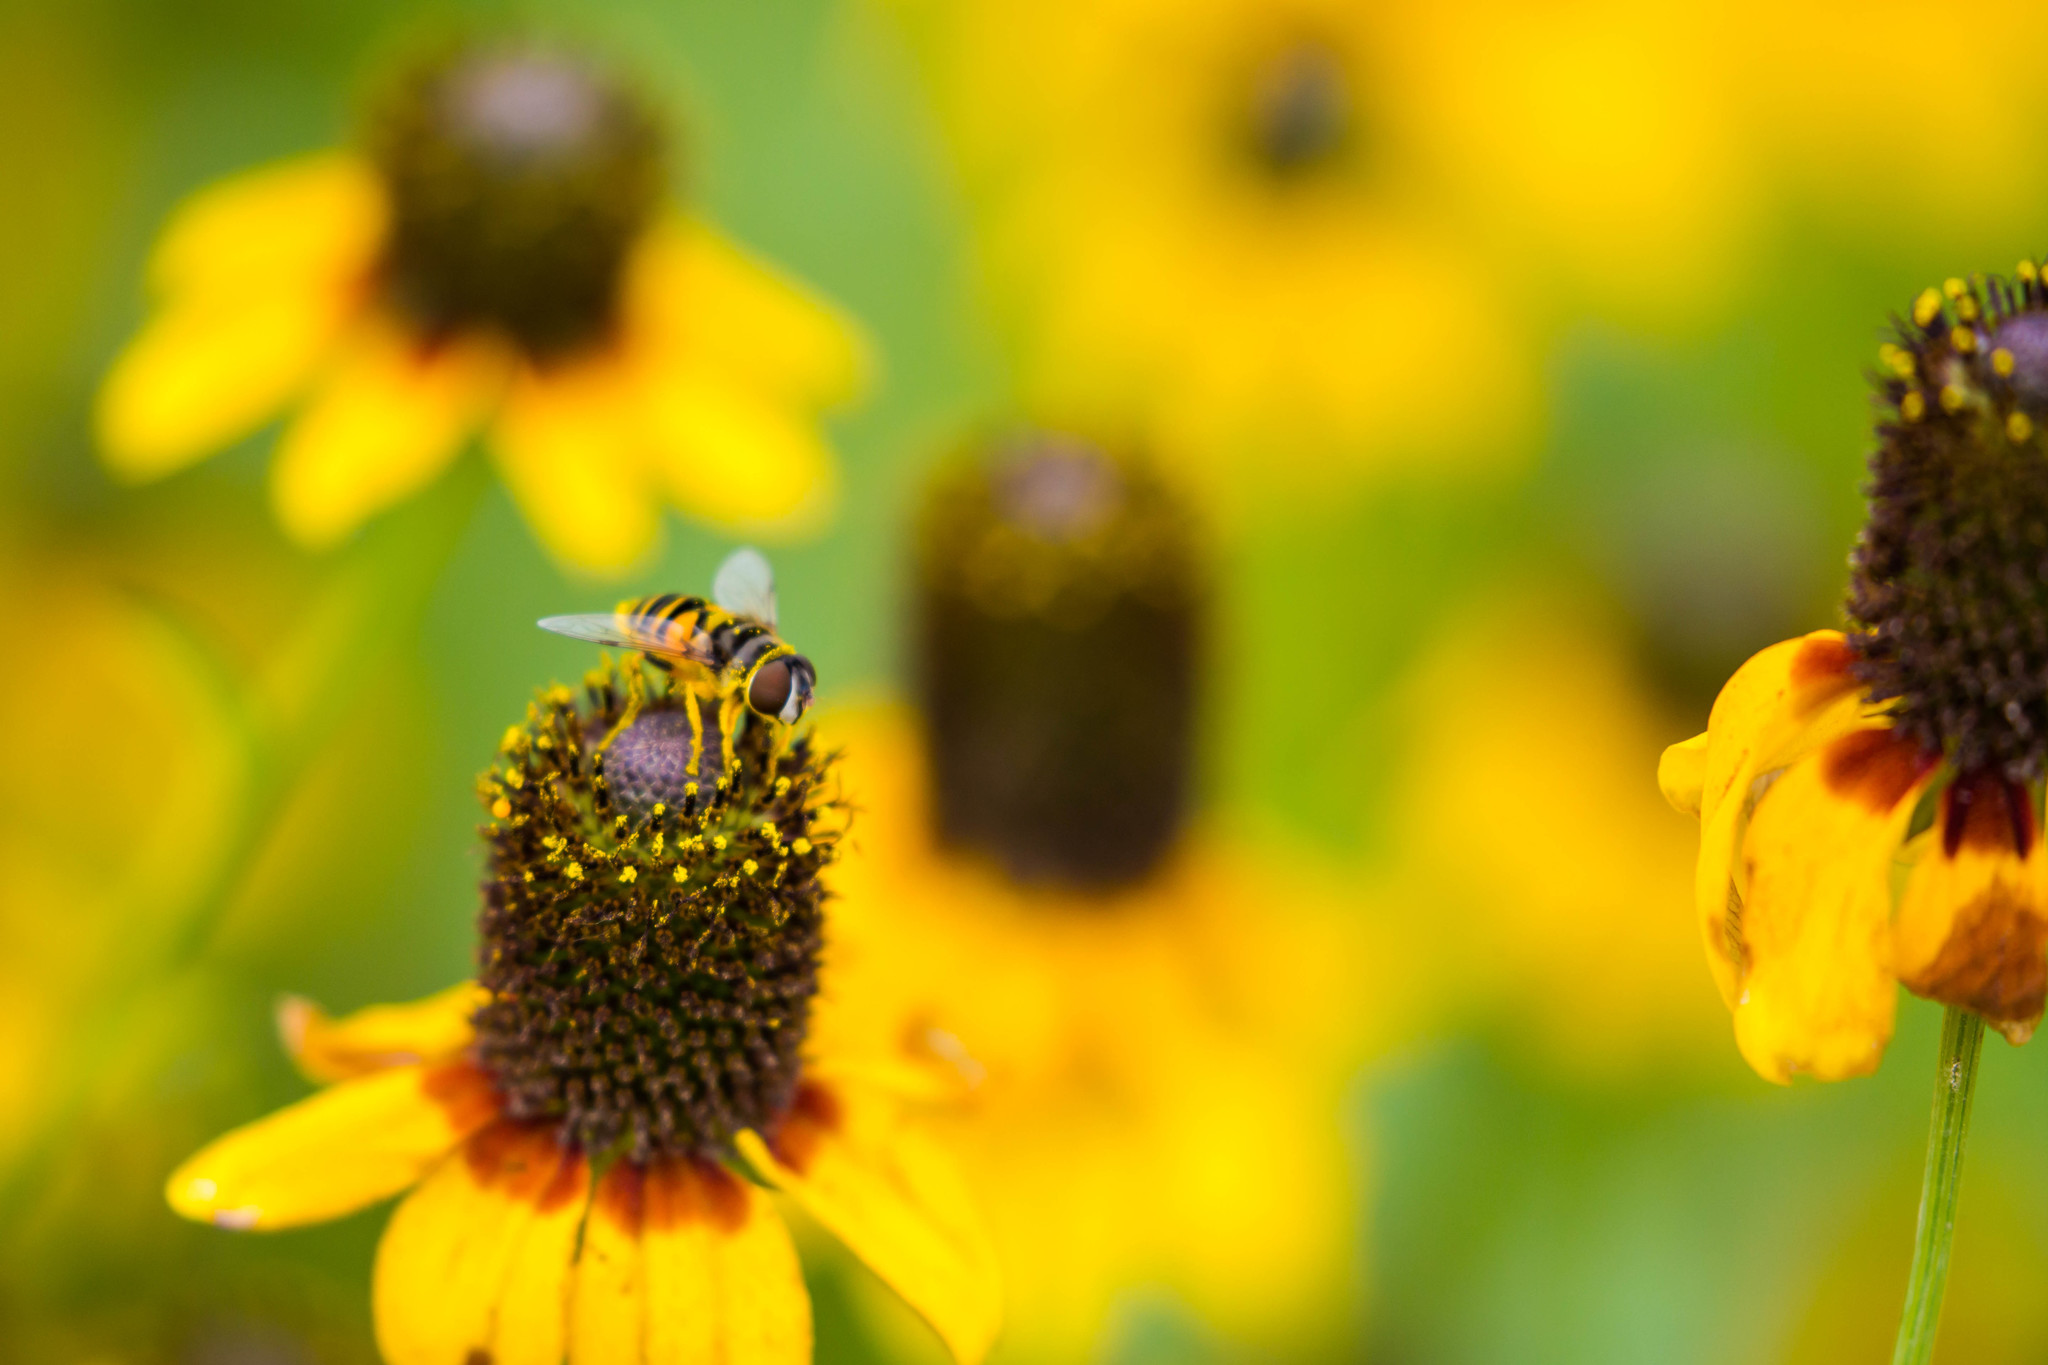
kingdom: Animalia
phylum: Arthropoda
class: Insecta
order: Diptera
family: Syrphidae
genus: Eristalis
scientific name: Eristalis transversa
